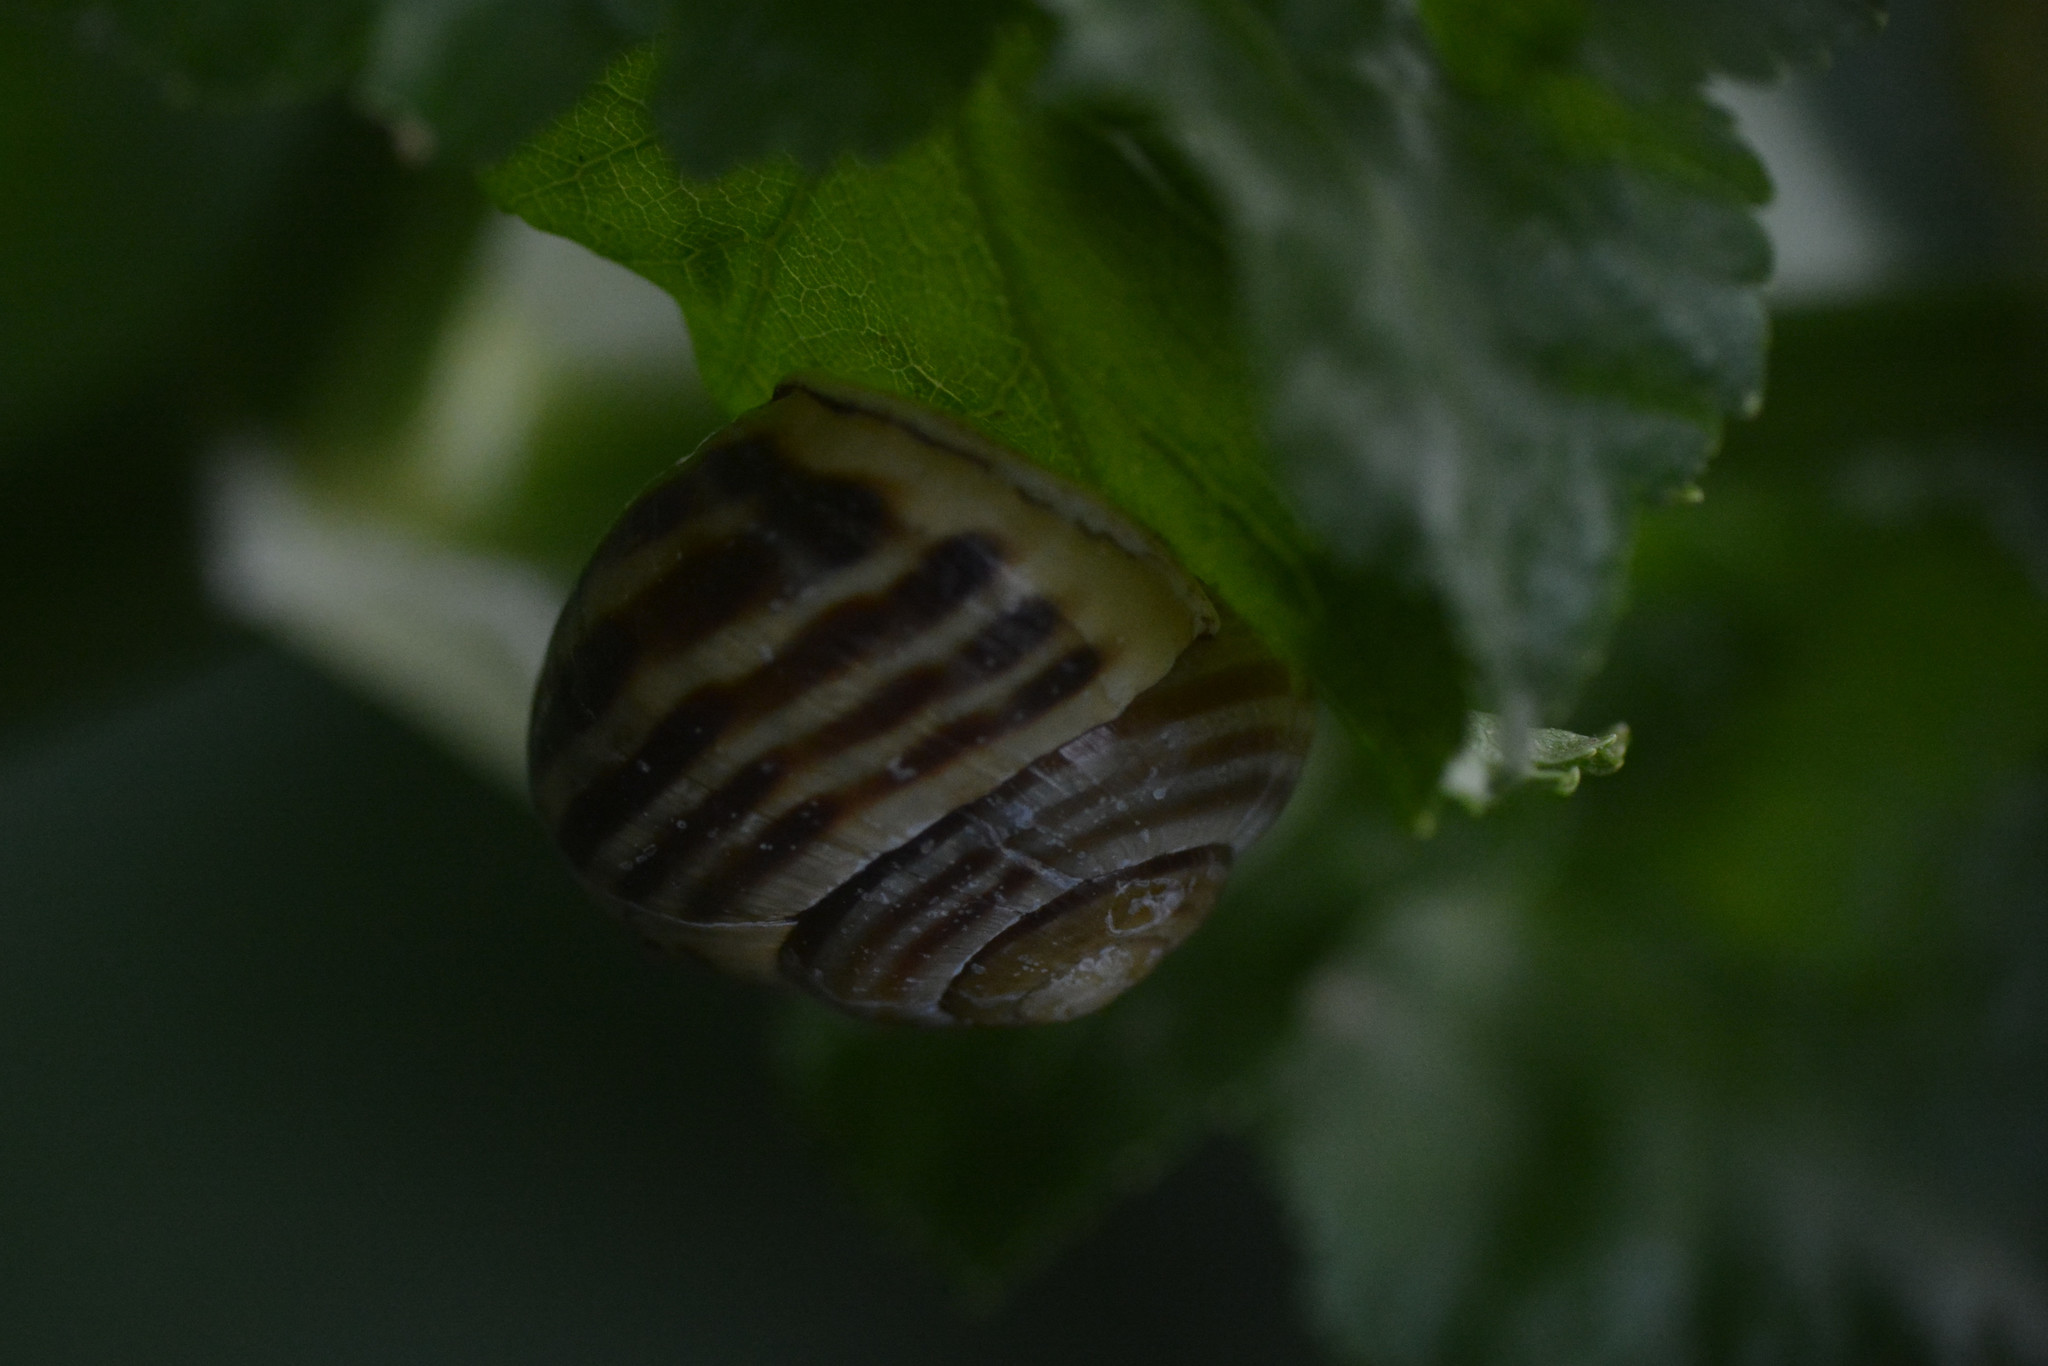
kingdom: Animalia
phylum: Mollusca
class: Gastropoda
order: Stylommatophora
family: Helicidae
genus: Cepaea
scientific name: Cepaea hortensis
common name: White-lip gardensnail
